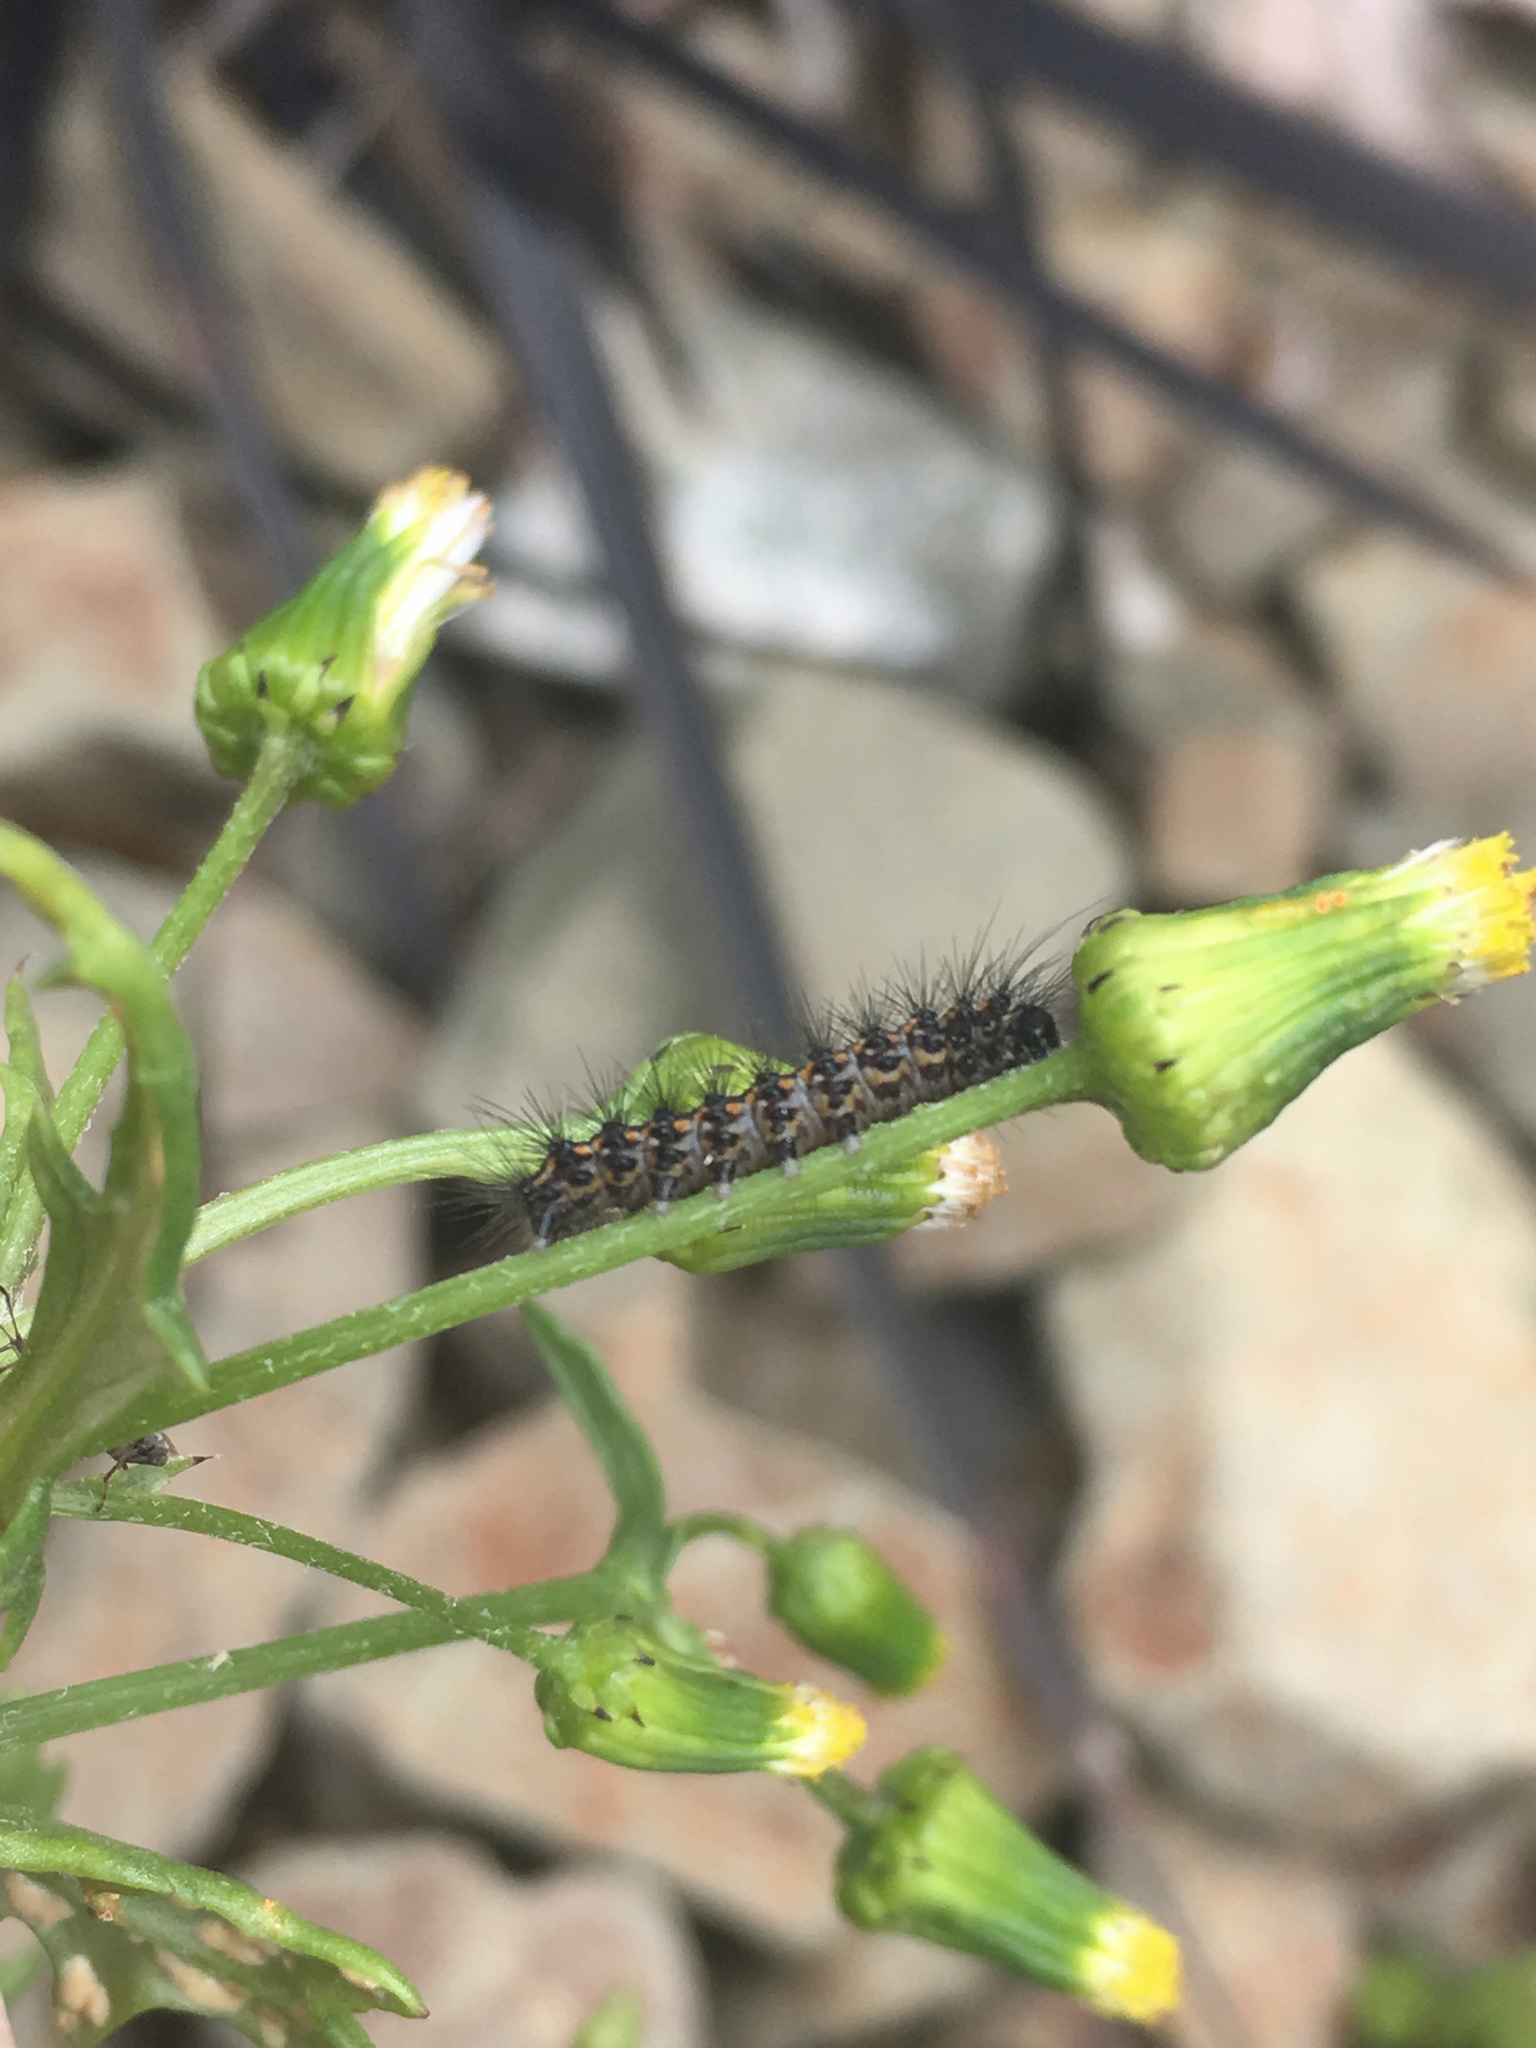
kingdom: Animalia
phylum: Arthropoda
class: Insecta
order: Lepidoptera
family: Erebidae
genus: Nyctemera
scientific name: Nyctemera annulatum
